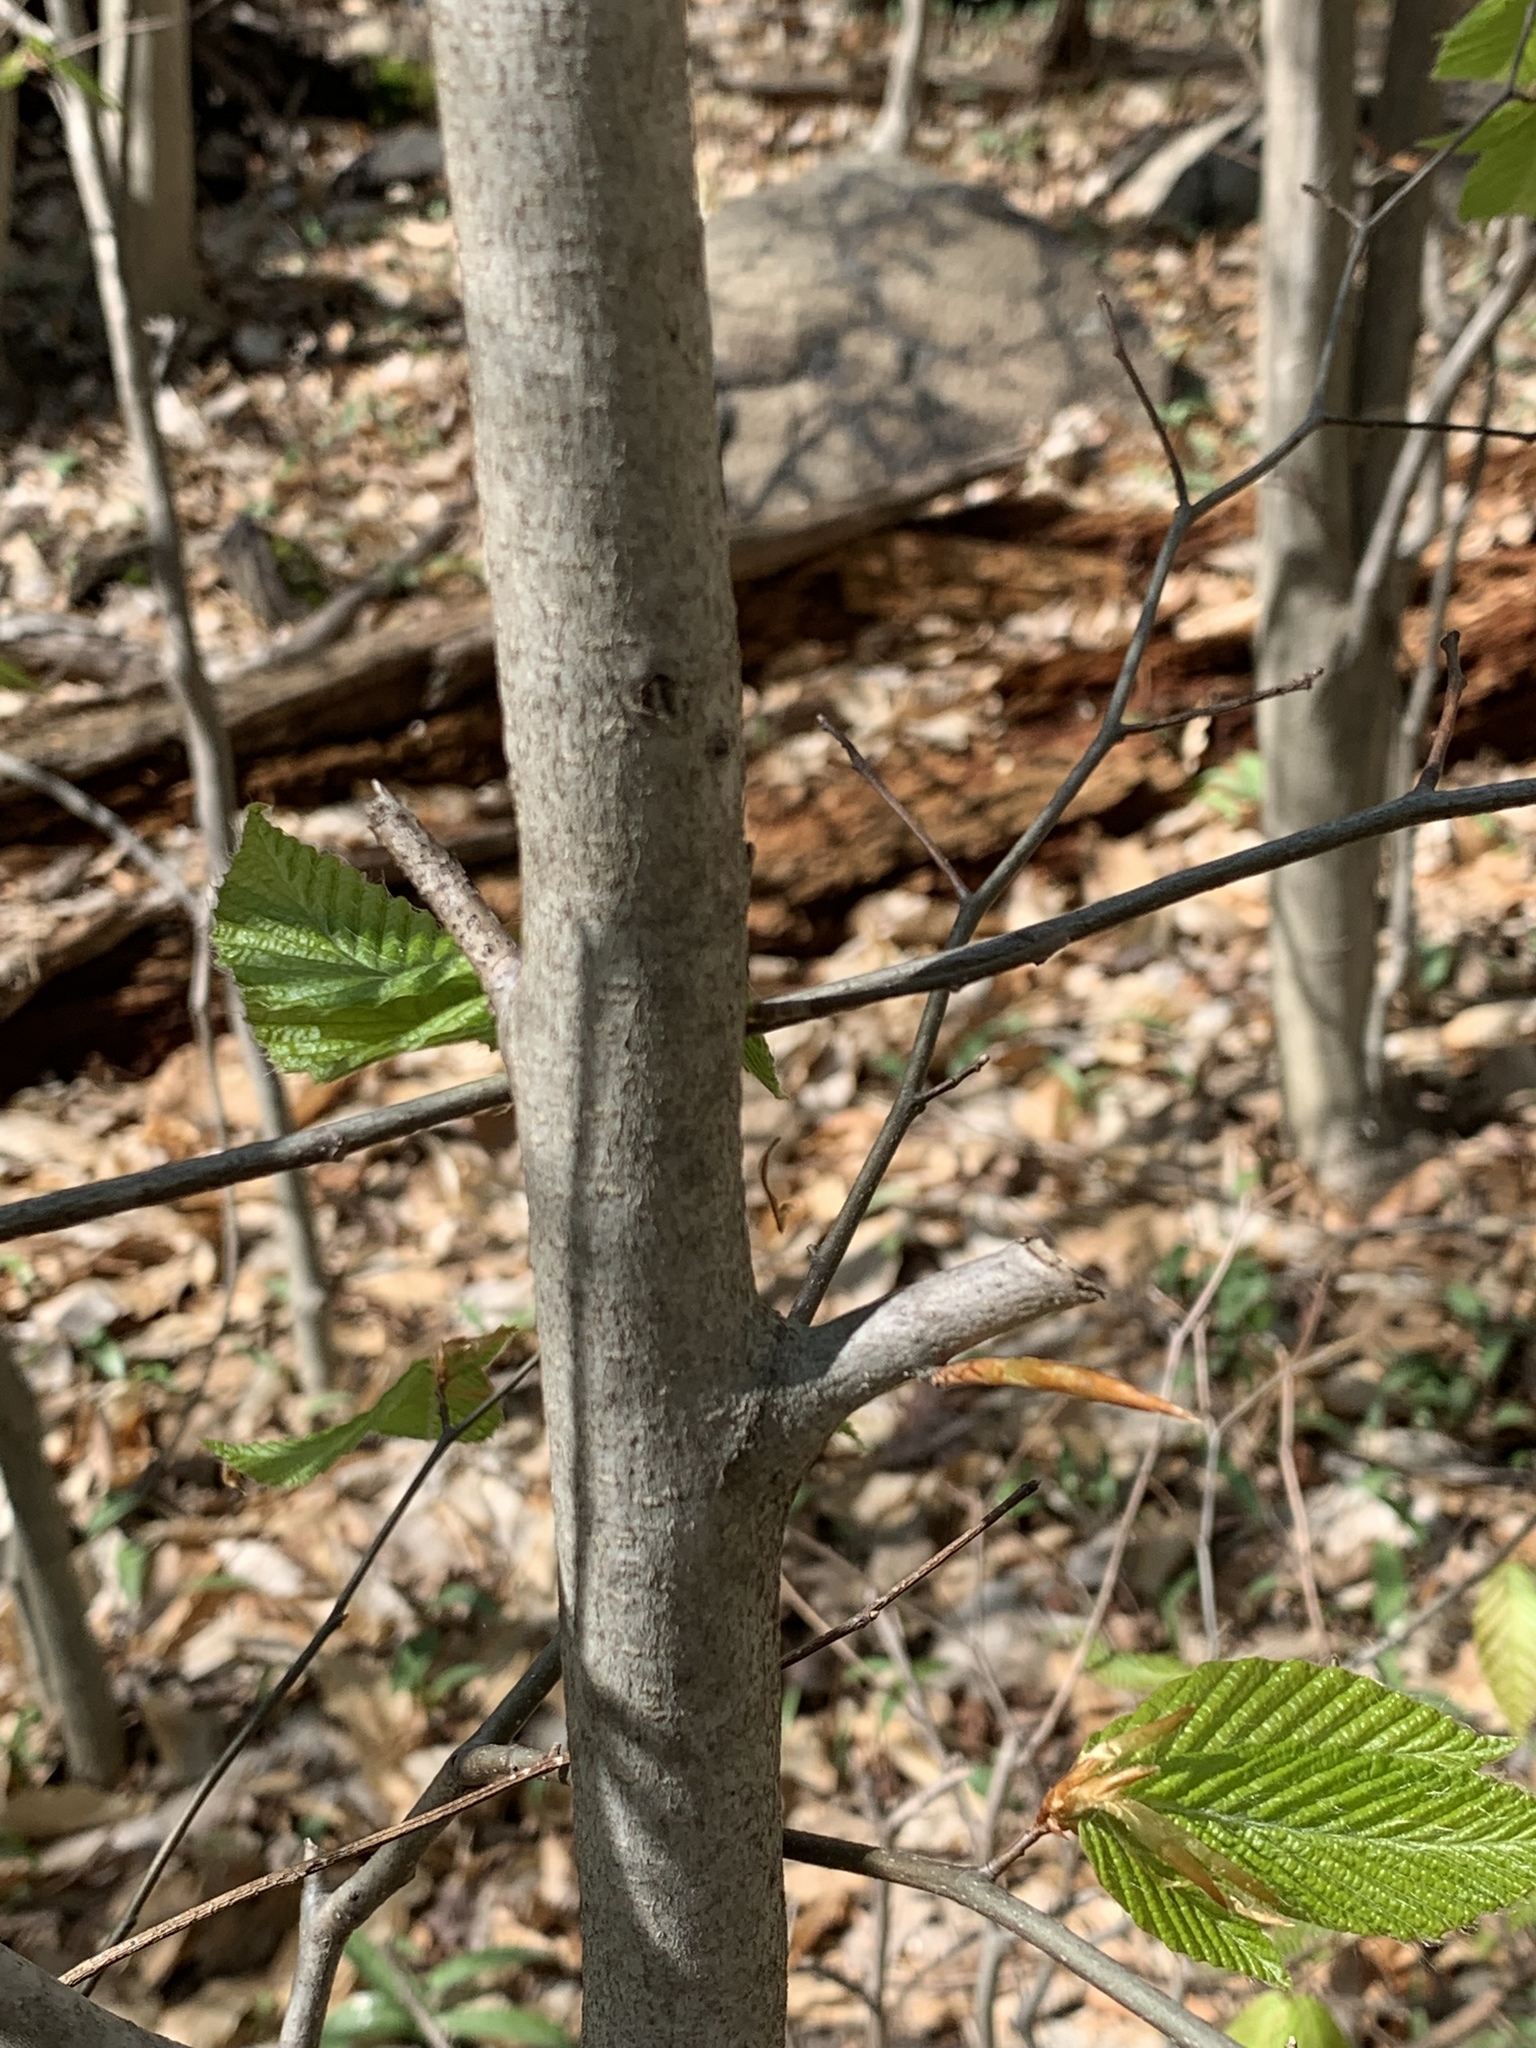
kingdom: Plantae
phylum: Tracheophyta
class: Magnoliopsida
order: Fagales
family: Fagaceae
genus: Fagus
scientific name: Fagus grandifolia
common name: American beech
